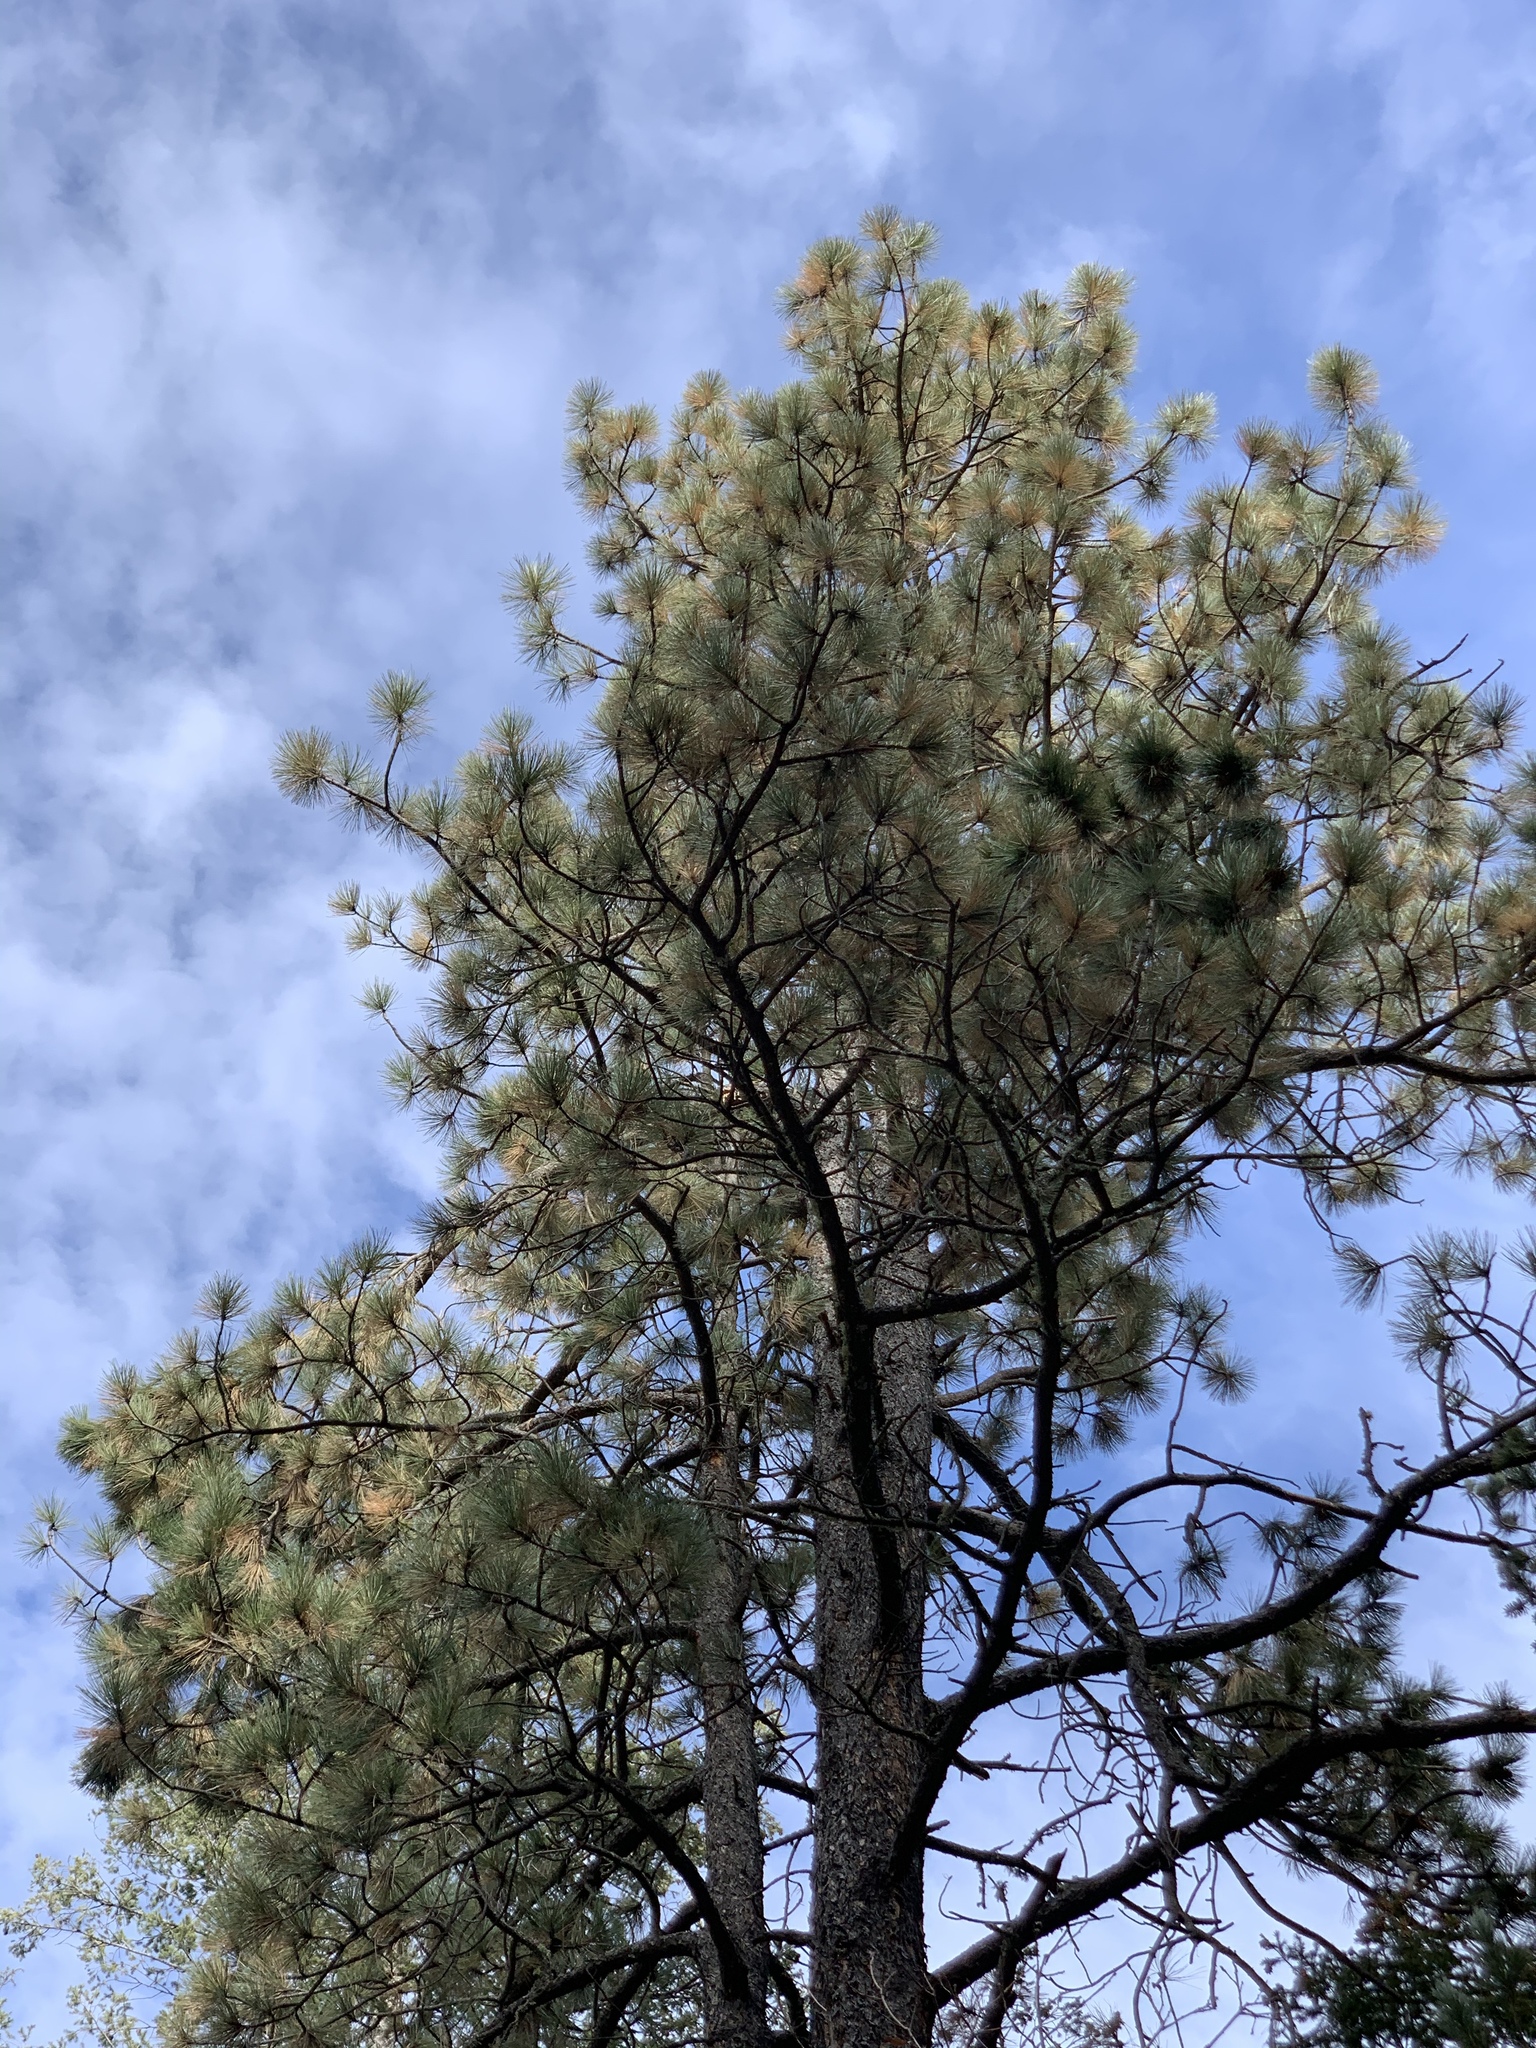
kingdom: Plantae
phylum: Tracheophyta
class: Pinopsida
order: Pinales
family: Pinaceae
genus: Pinus
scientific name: Pinus ponderosa
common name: Western yellow-pine
